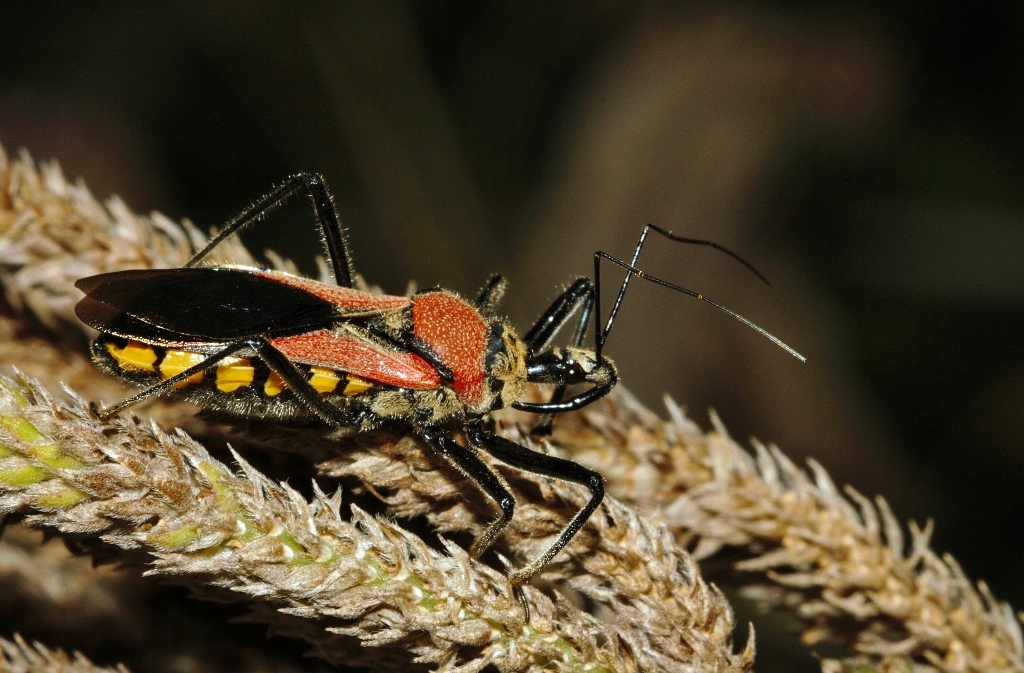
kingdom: Animalia
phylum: Arthropoda
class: Insecta
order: Hemiptera
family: Reduviidae
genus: Rhynocoris
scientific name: Rhynocoris segmentarius
